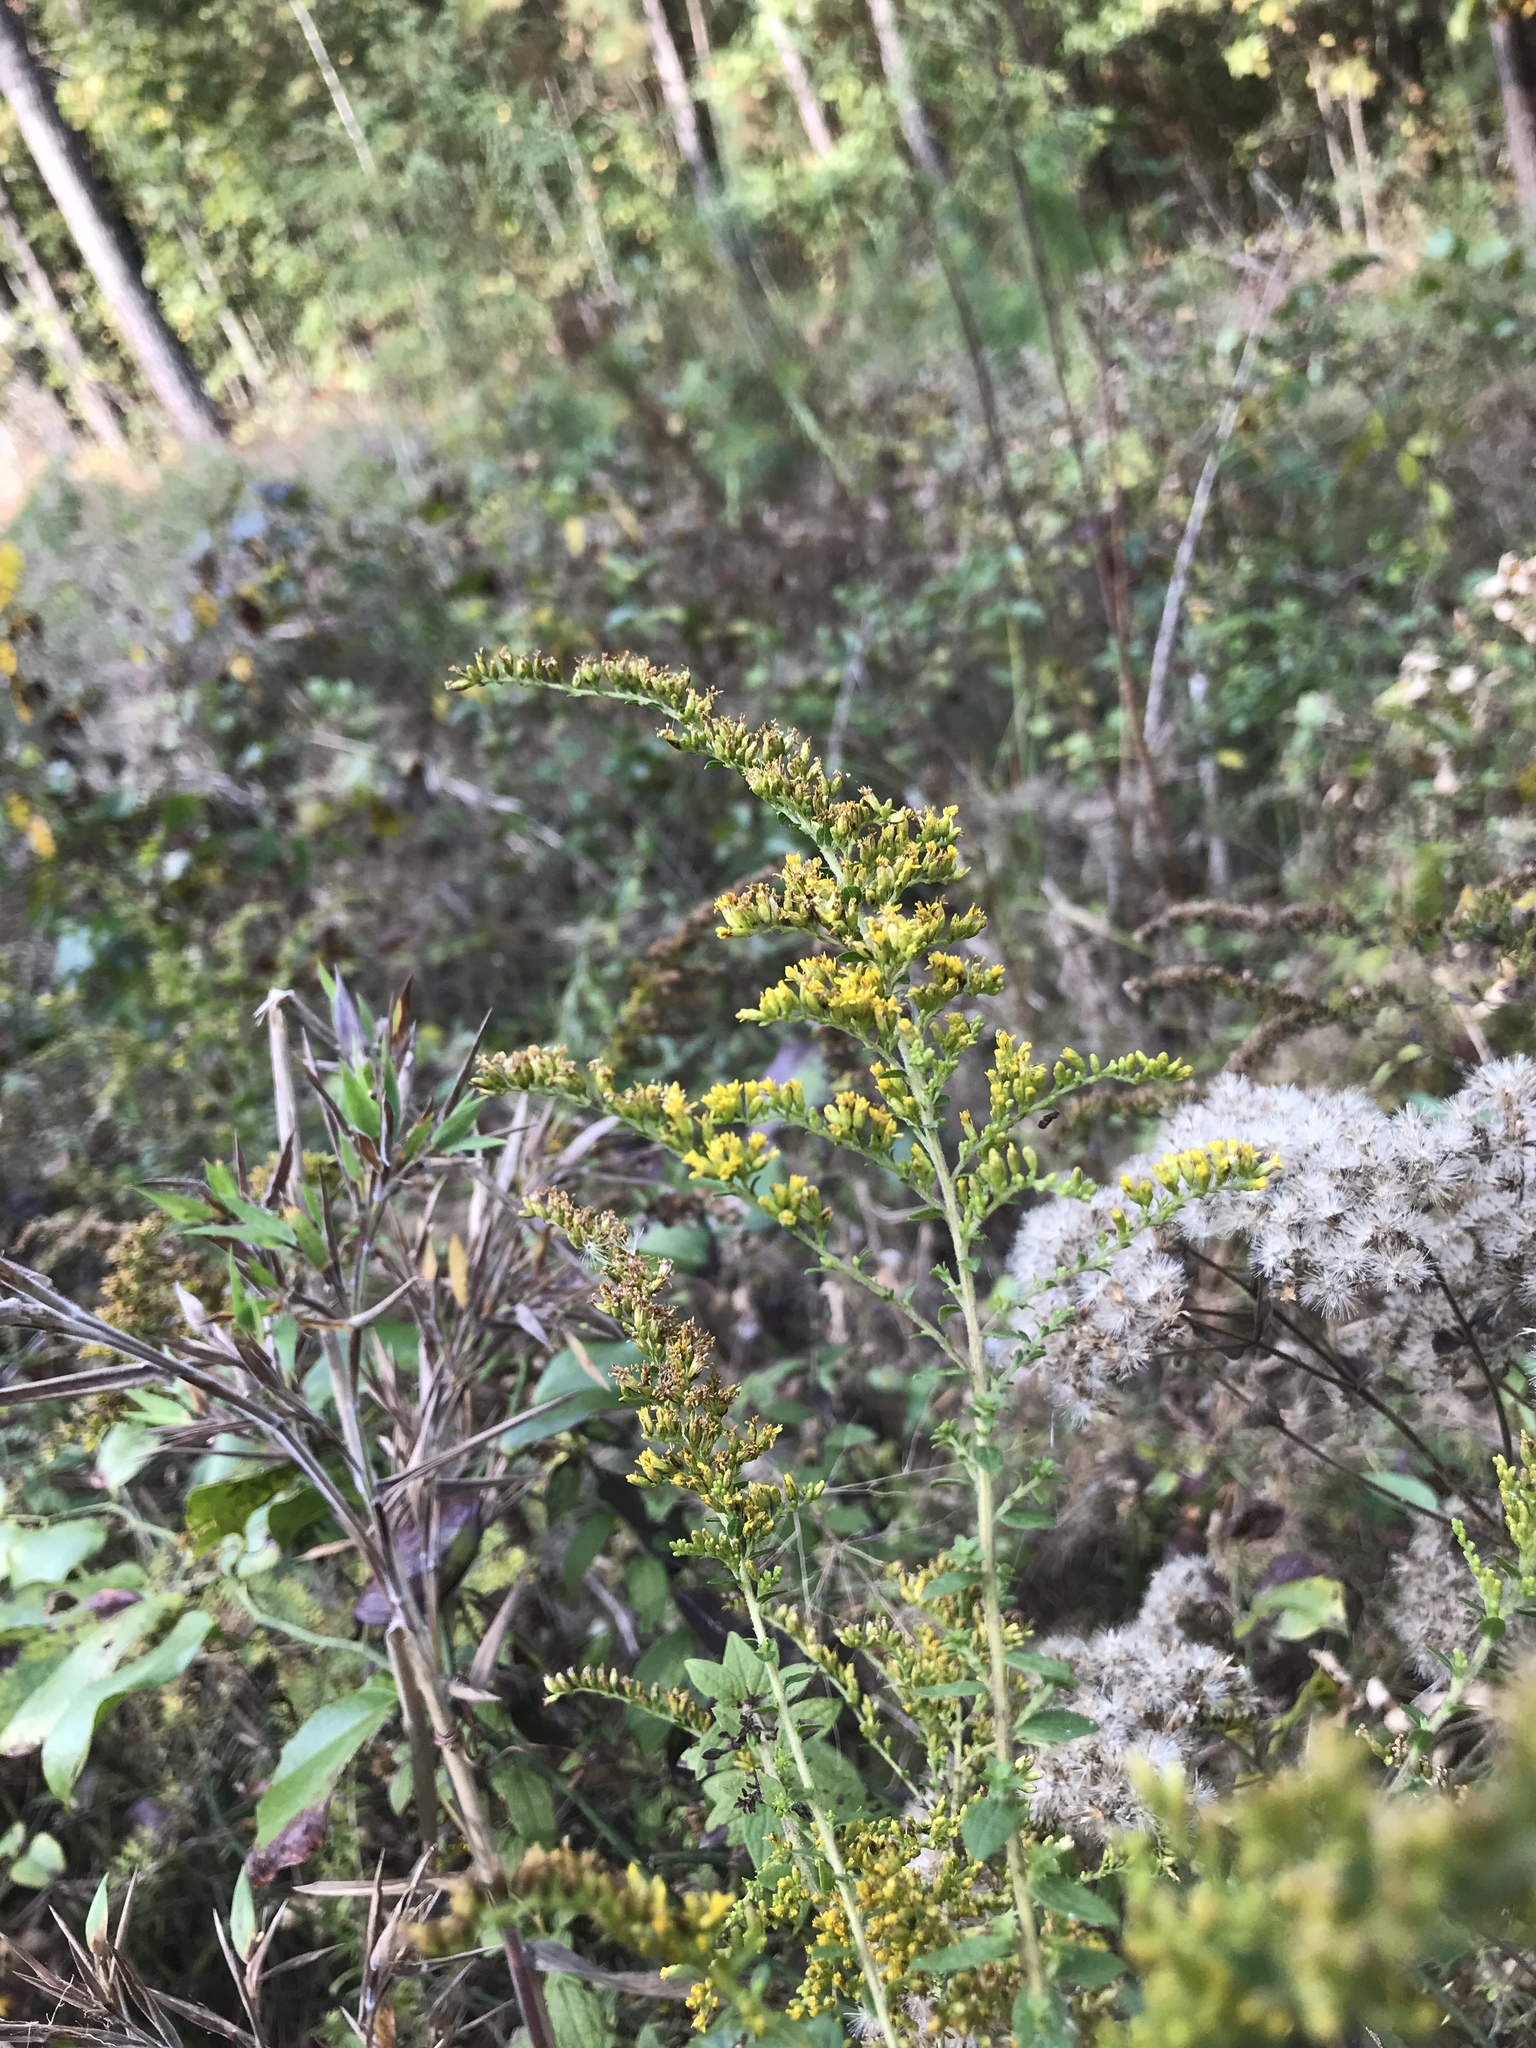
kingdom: Plantae
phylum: Tracheophyta
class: Magnoliopsida
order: Asterales
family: Asteraceae
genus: Solidago
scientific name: Solidago rugosa
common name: Rough-stemmed goldenrod
